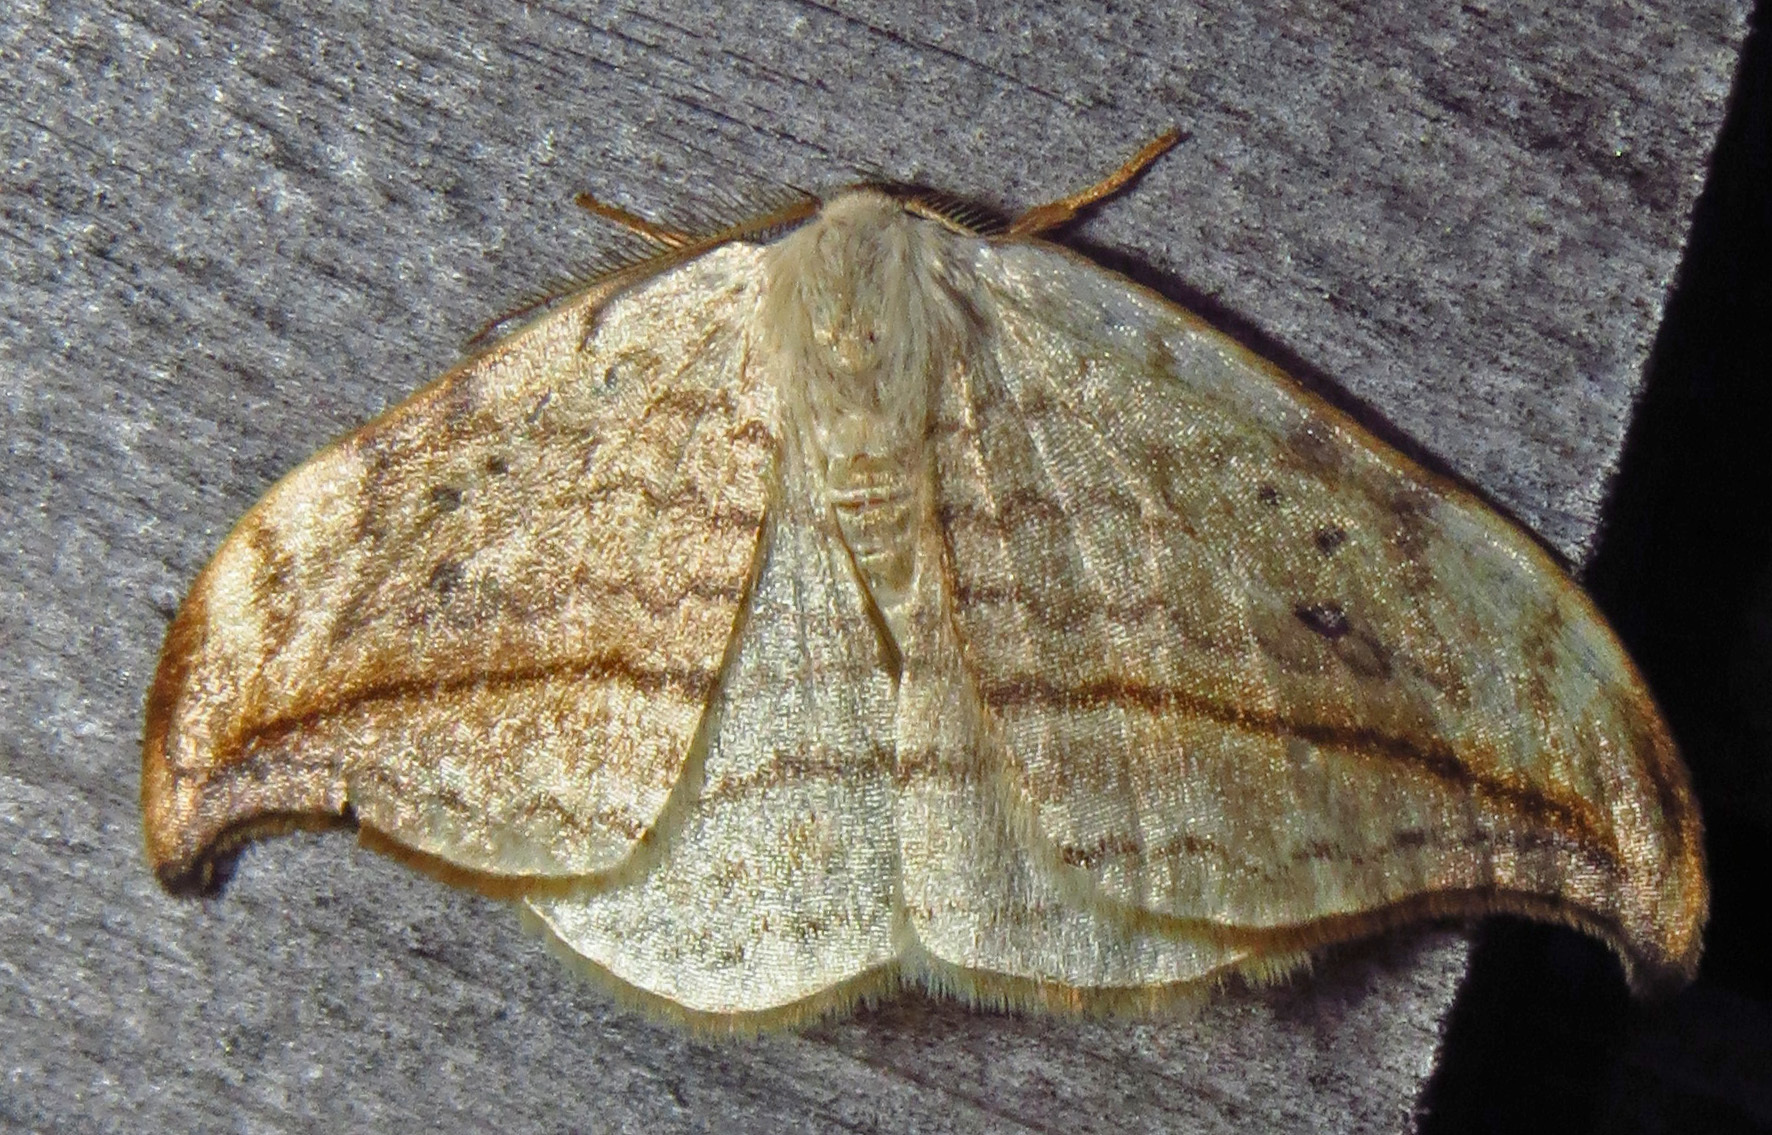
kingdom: Animalia
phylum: Arthropoda
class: Insecta
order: Lepidoptera
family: Drepanidae
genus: Drepana
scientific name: Drepana arcuata
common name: Arched hooktip moth
